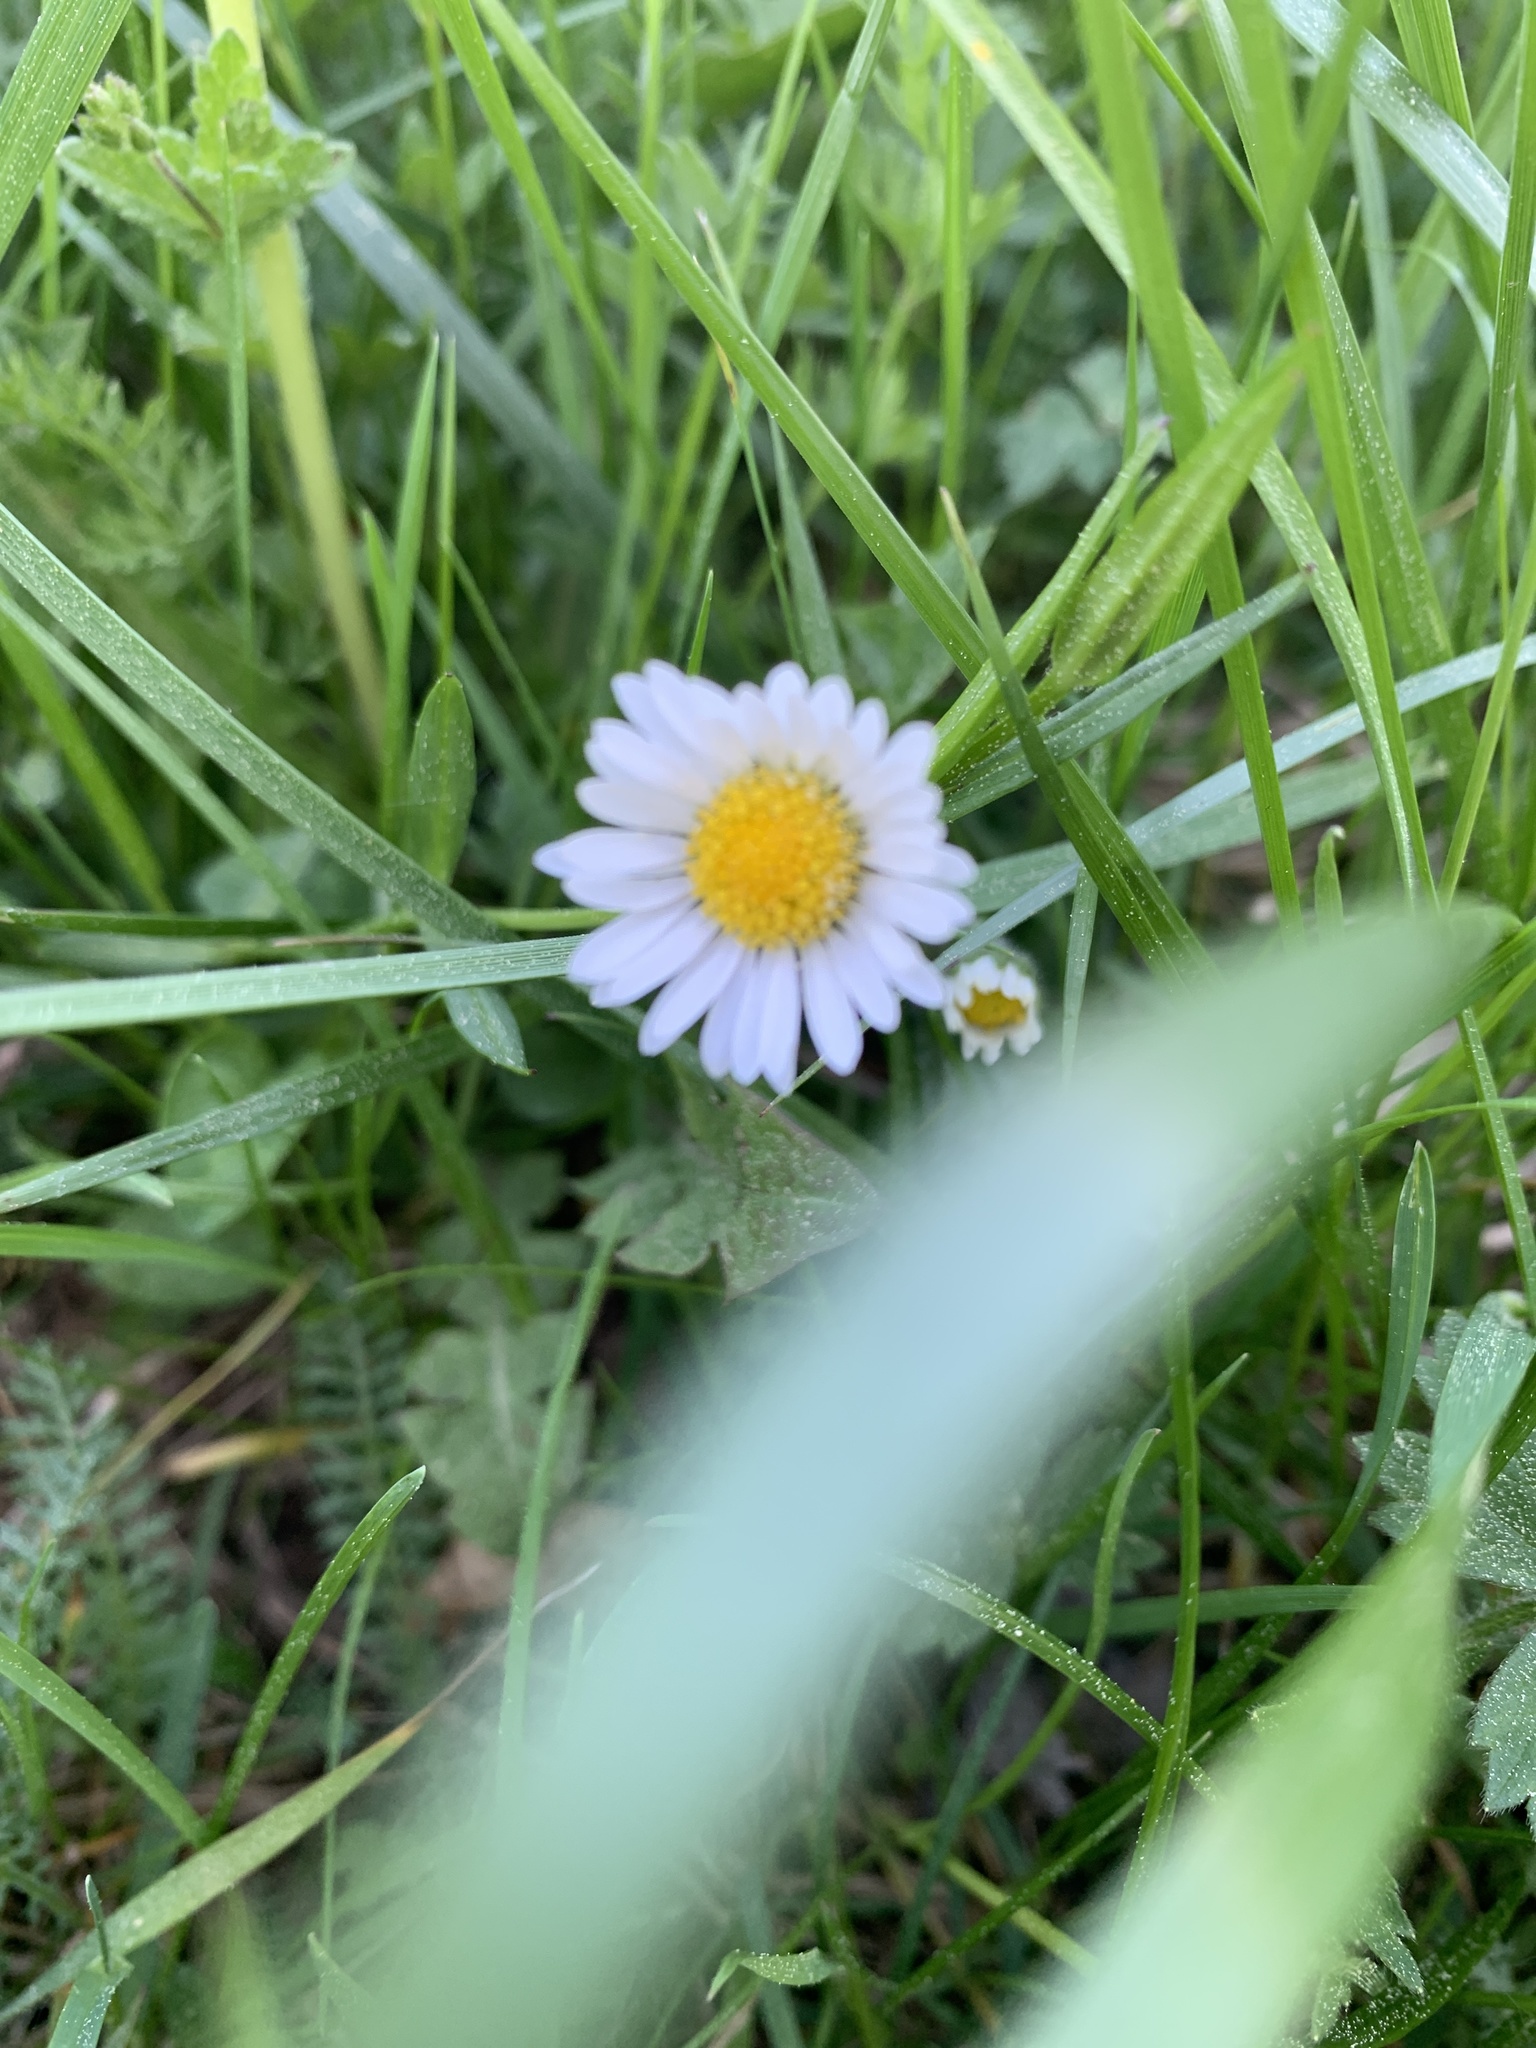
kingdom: Plantae
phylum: Tracheophyta
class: Magnoliopsida
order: Asterales
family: Asteraceae
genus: Bellis
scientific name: Bellis perennis
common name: Lawndaisy
